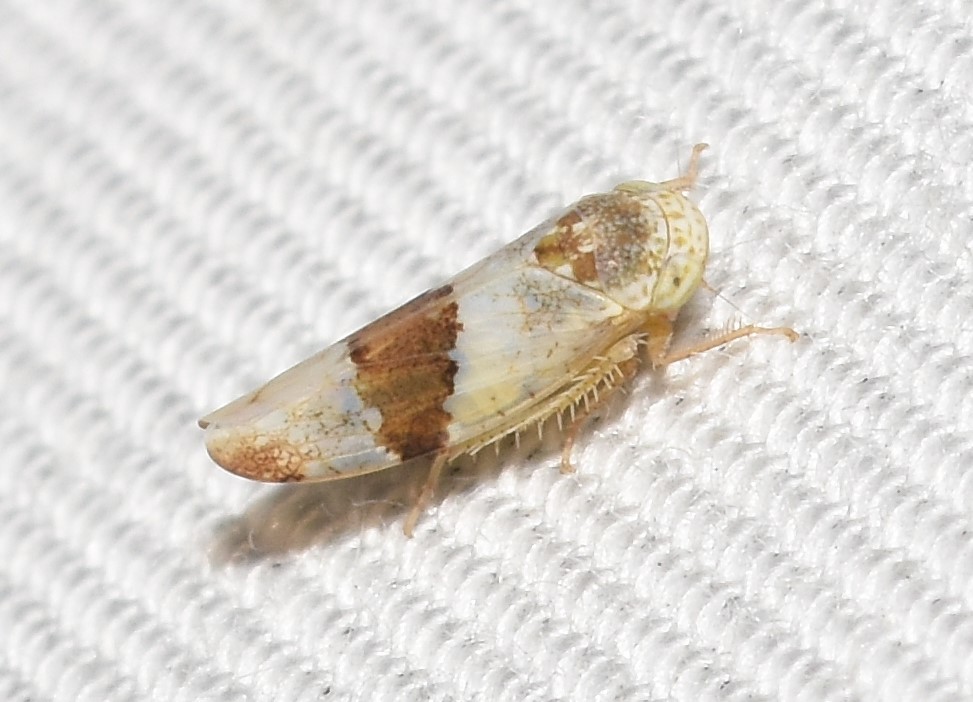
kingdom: Animalia
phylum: Arthropoda
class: Insecta
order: Hemiptera
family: Cicadellidae
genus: Norvellina
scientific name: Norvellina seminuda
